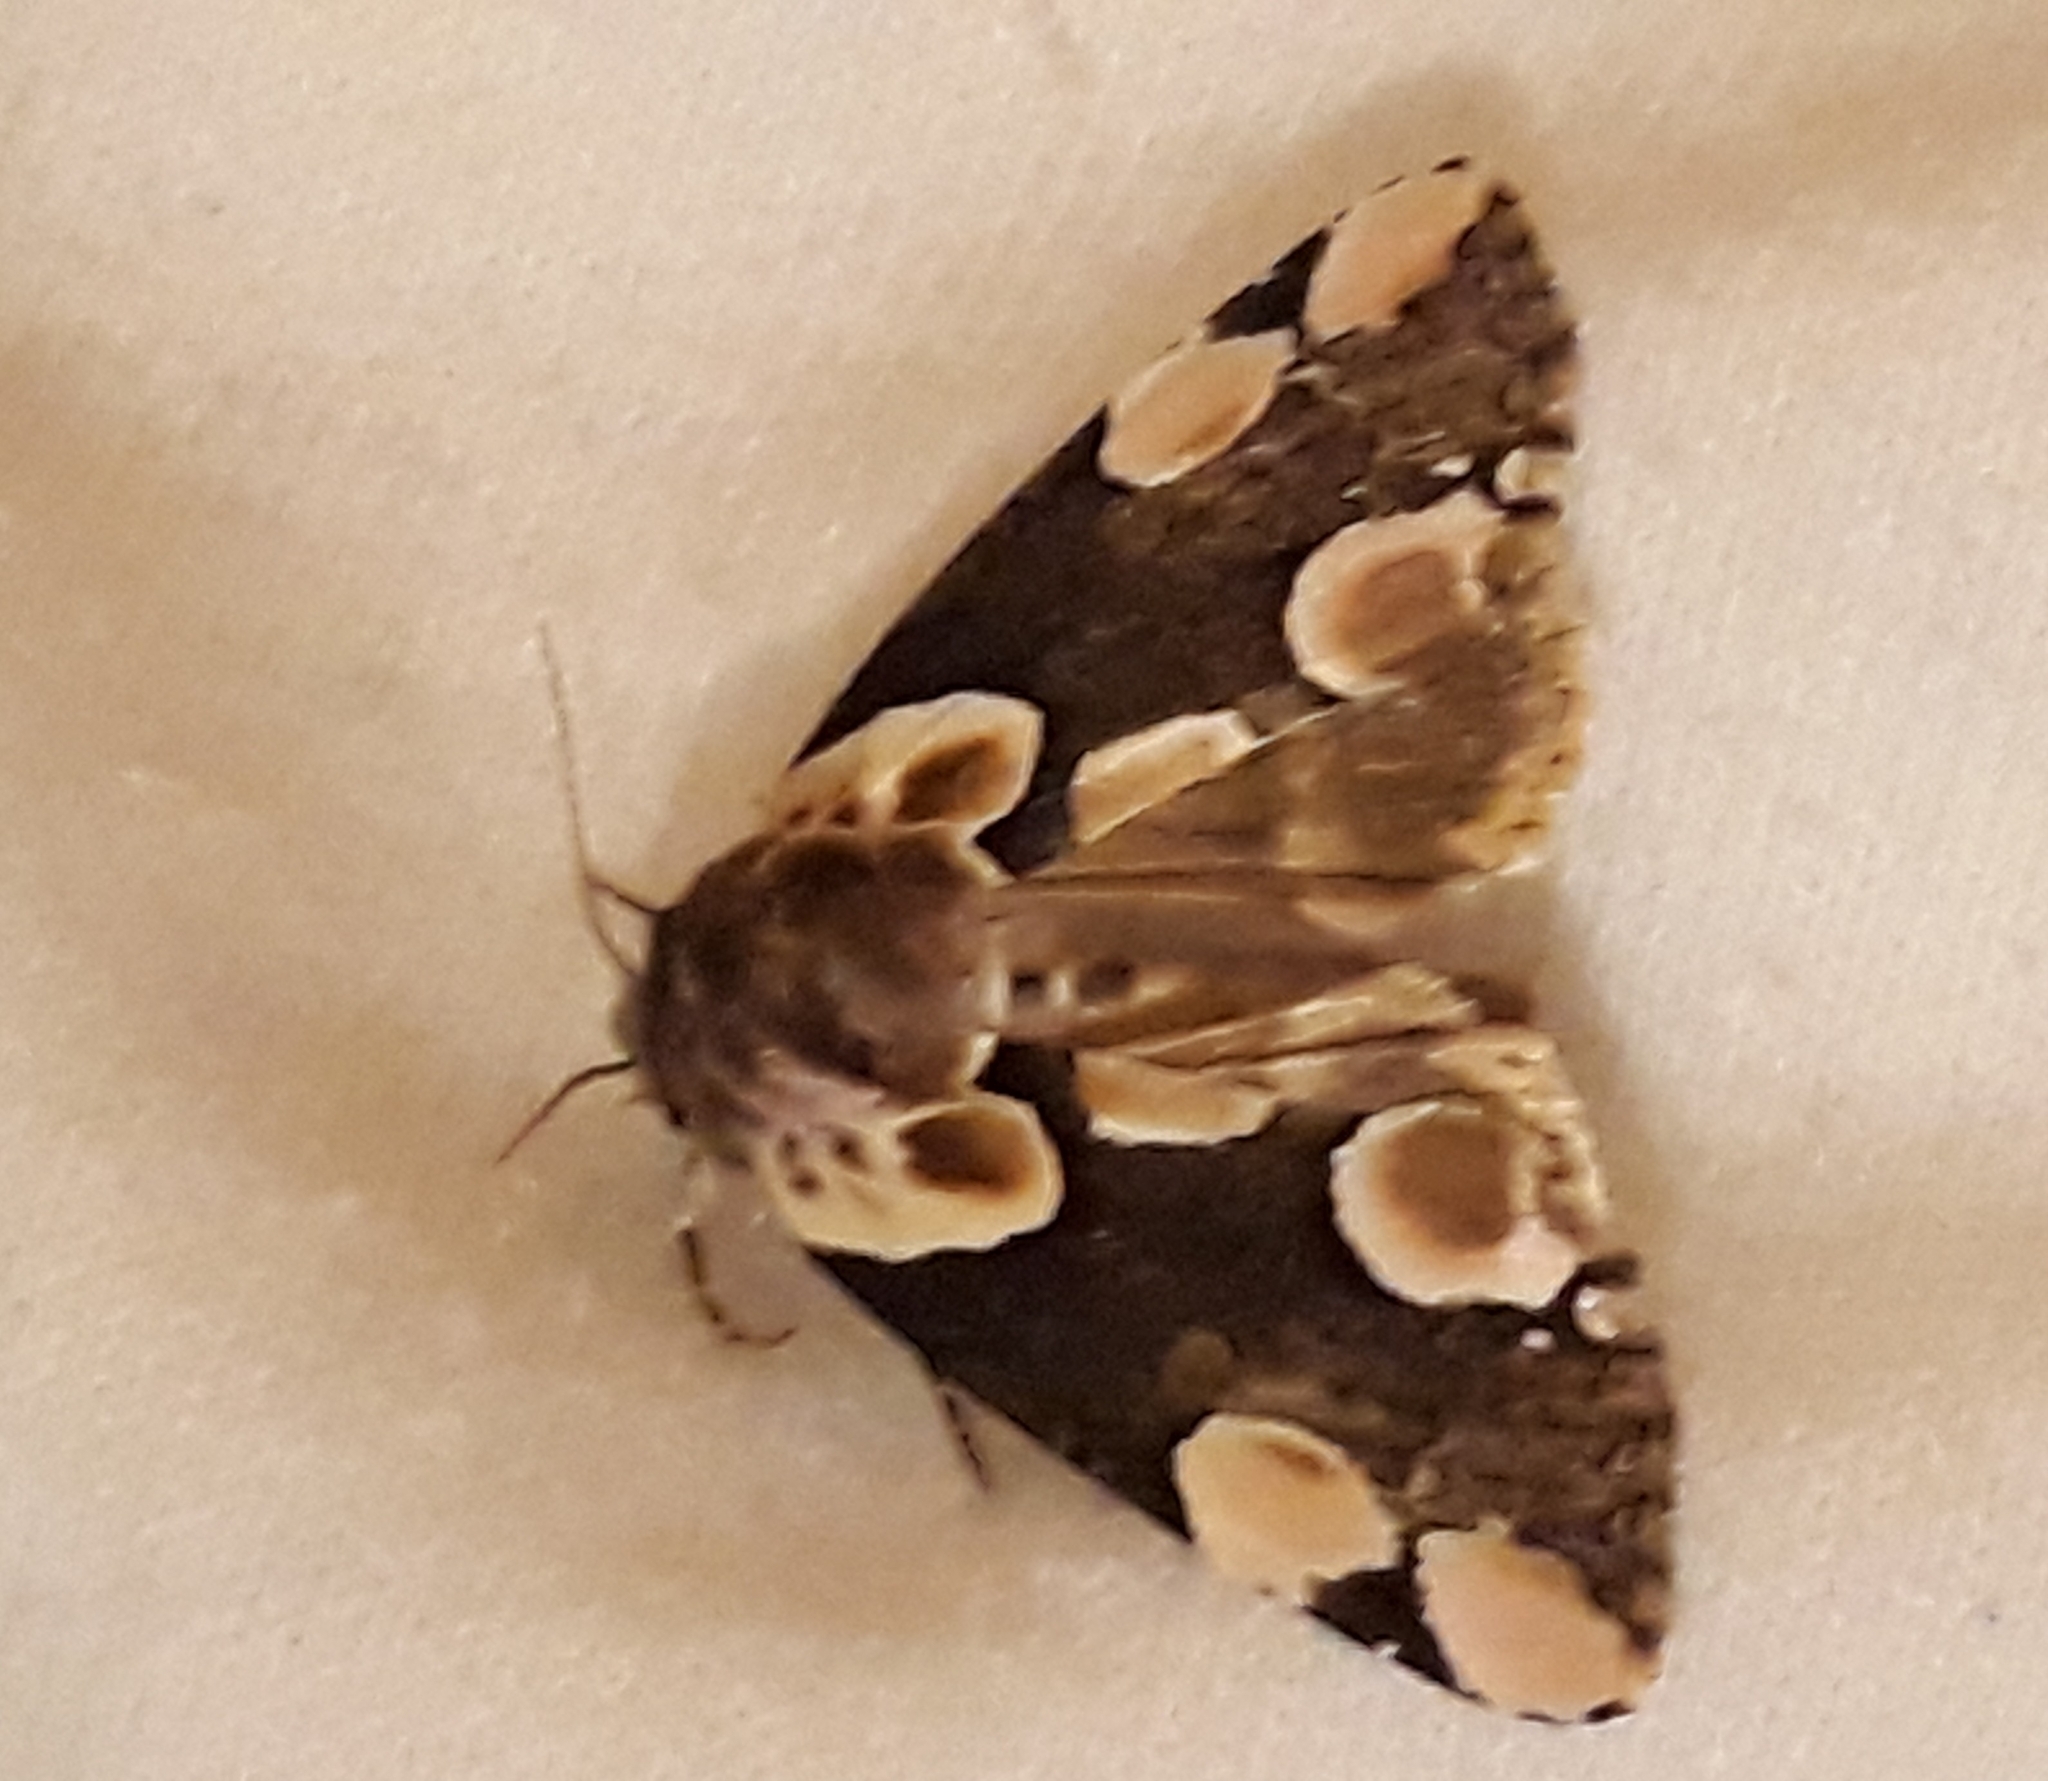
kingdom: Animalia
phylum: Arthropoda
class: Insecta
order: Lepidoptera
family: Drepanidae
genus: Thyatira
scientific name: Thyatira batis
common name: Peach blossom
